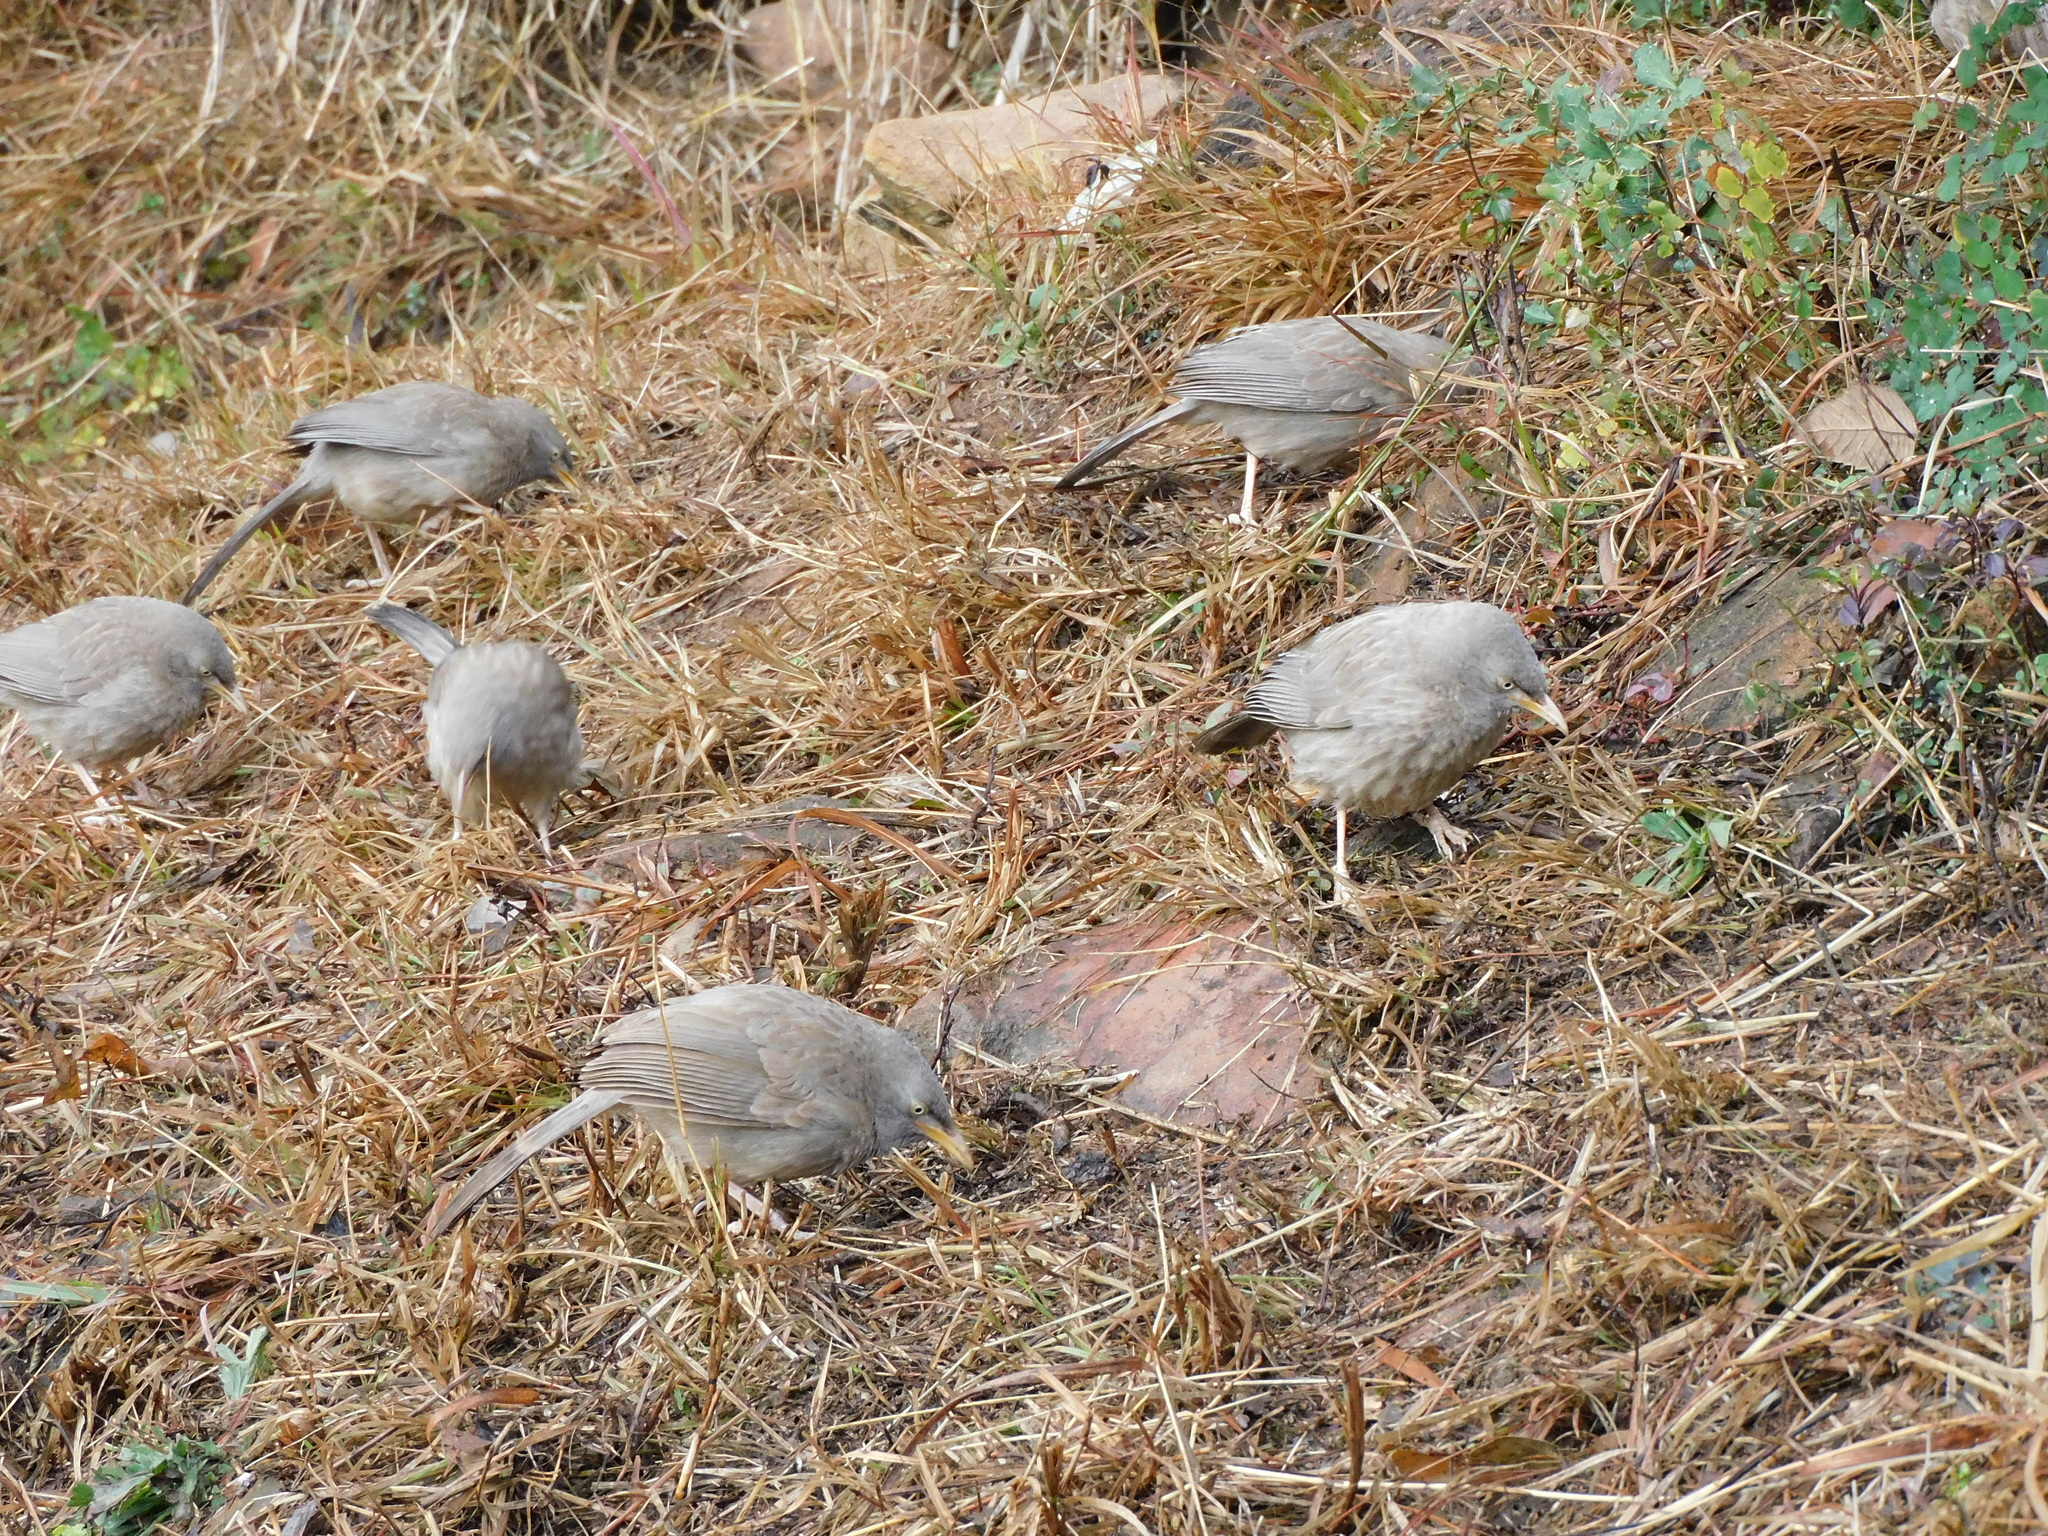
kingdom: Animalia
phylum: Chordata
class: Aves
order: Passeriformes
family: Leiothrichidae
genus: Turdoides
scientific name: Turdoides striata
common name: Jungle babbler
